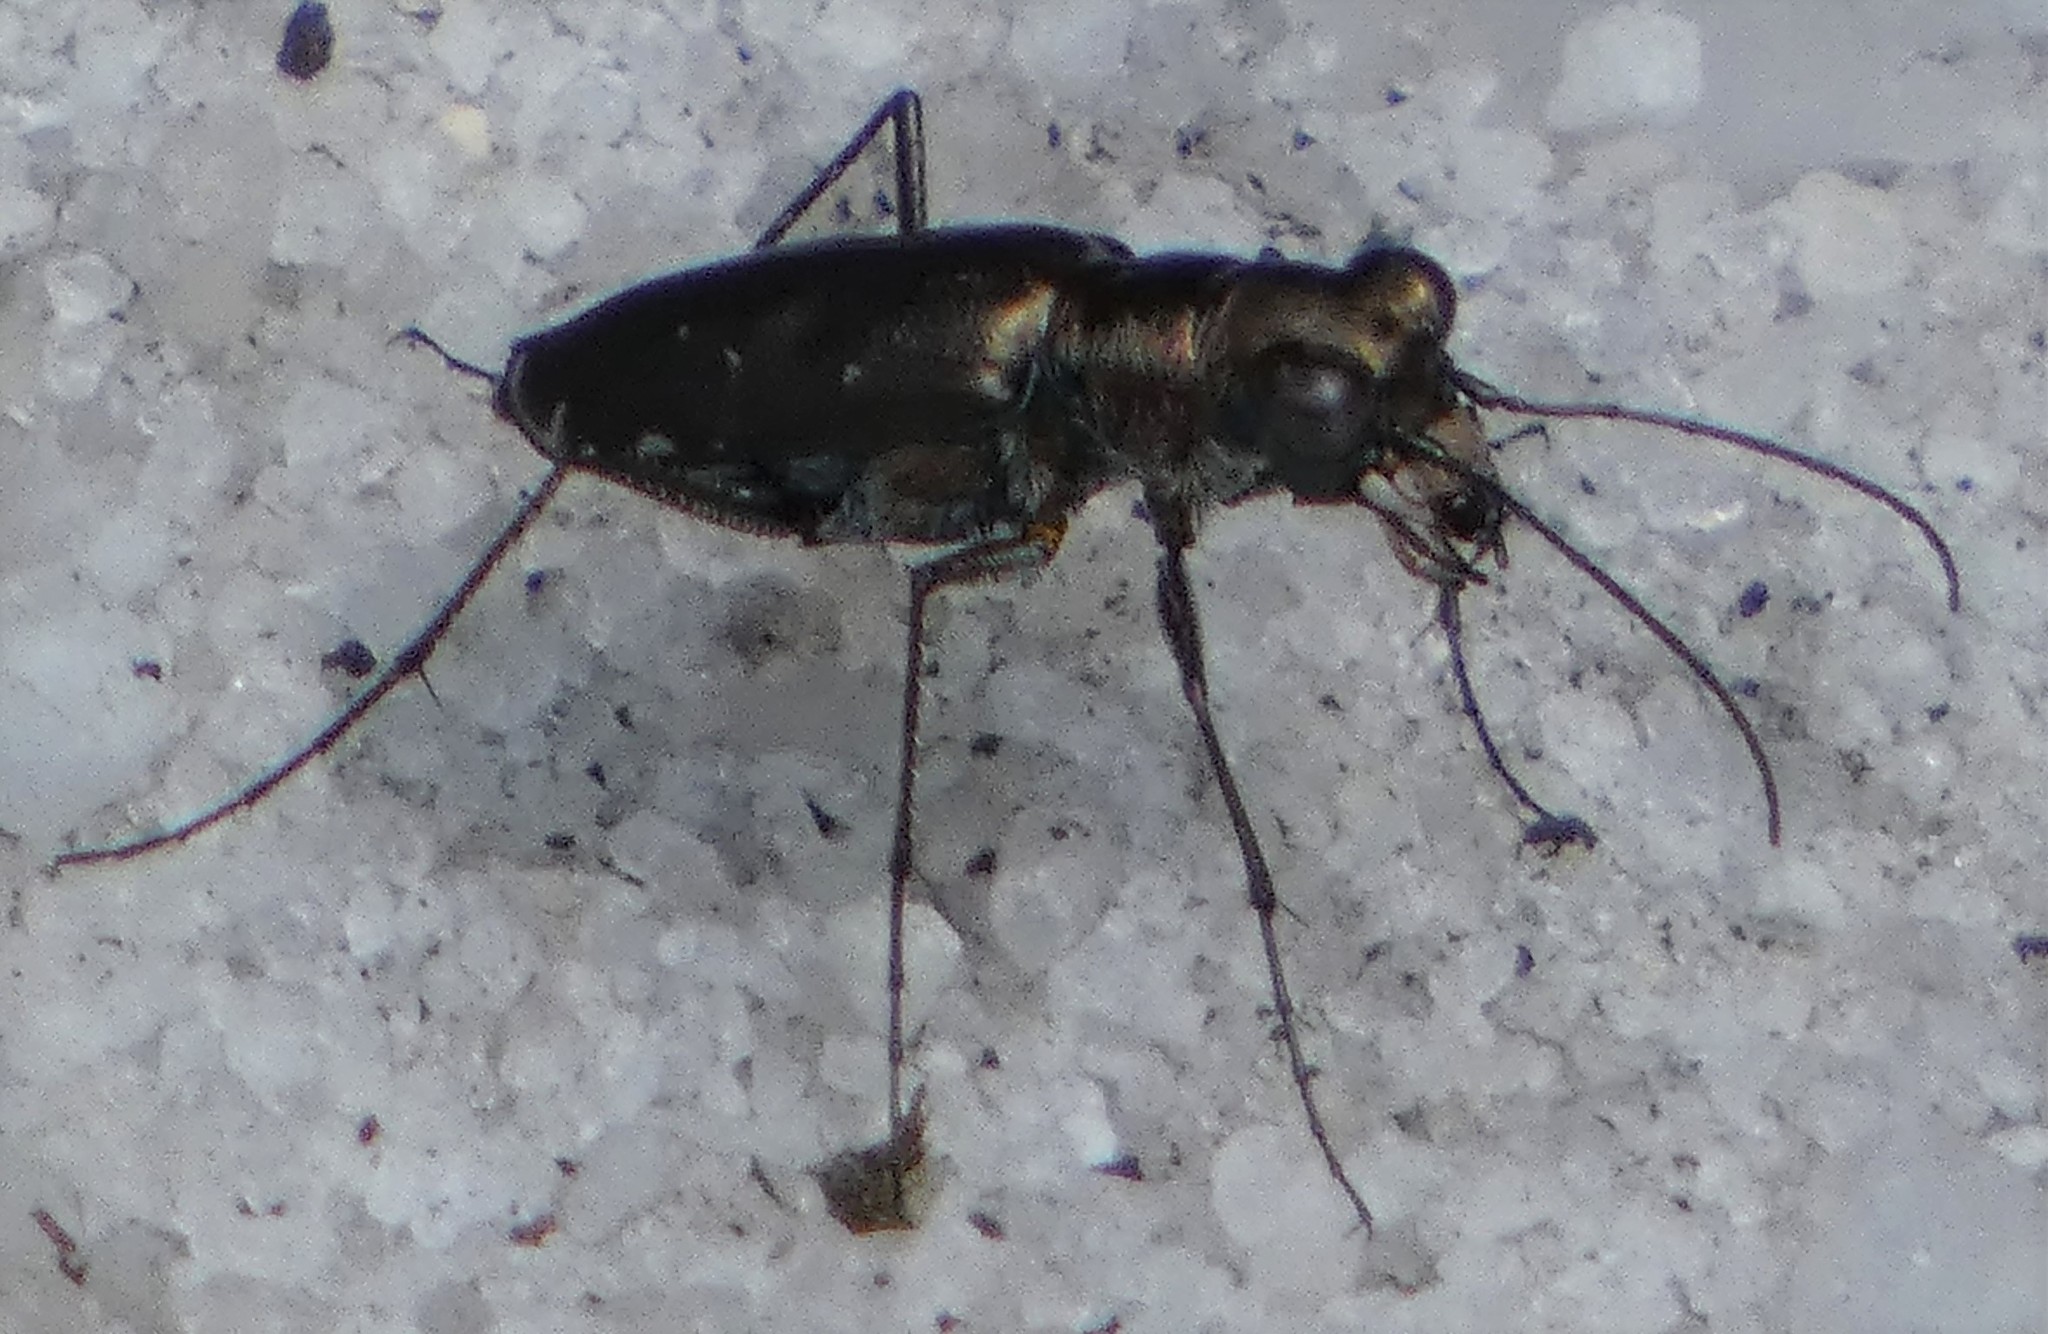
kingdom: Animalia
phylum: Arthropoda
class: Insecta
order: Coleoptera
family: Carabidae
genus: Cicindela
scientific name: Cicindela punctulata
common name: Punctured tiger beetle
